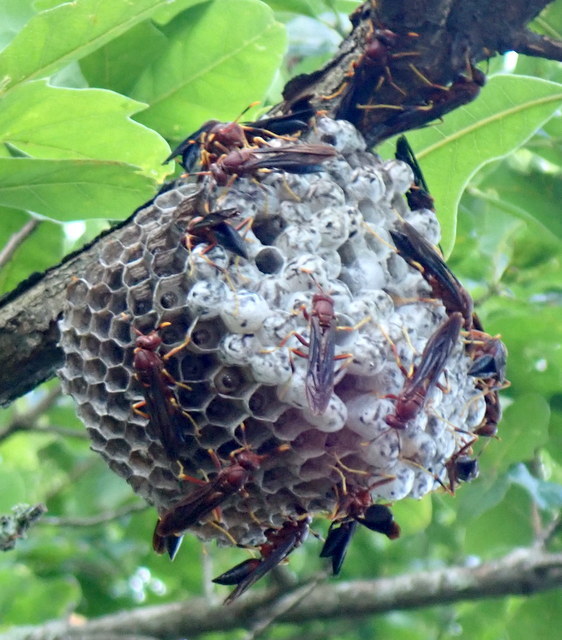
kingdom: Animalia
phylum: Arthropoda
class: Insecta
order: Hymenoptera
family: Eumenidae
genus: Polistes
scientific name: Polistes annularis
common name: Ringed paper wasp
